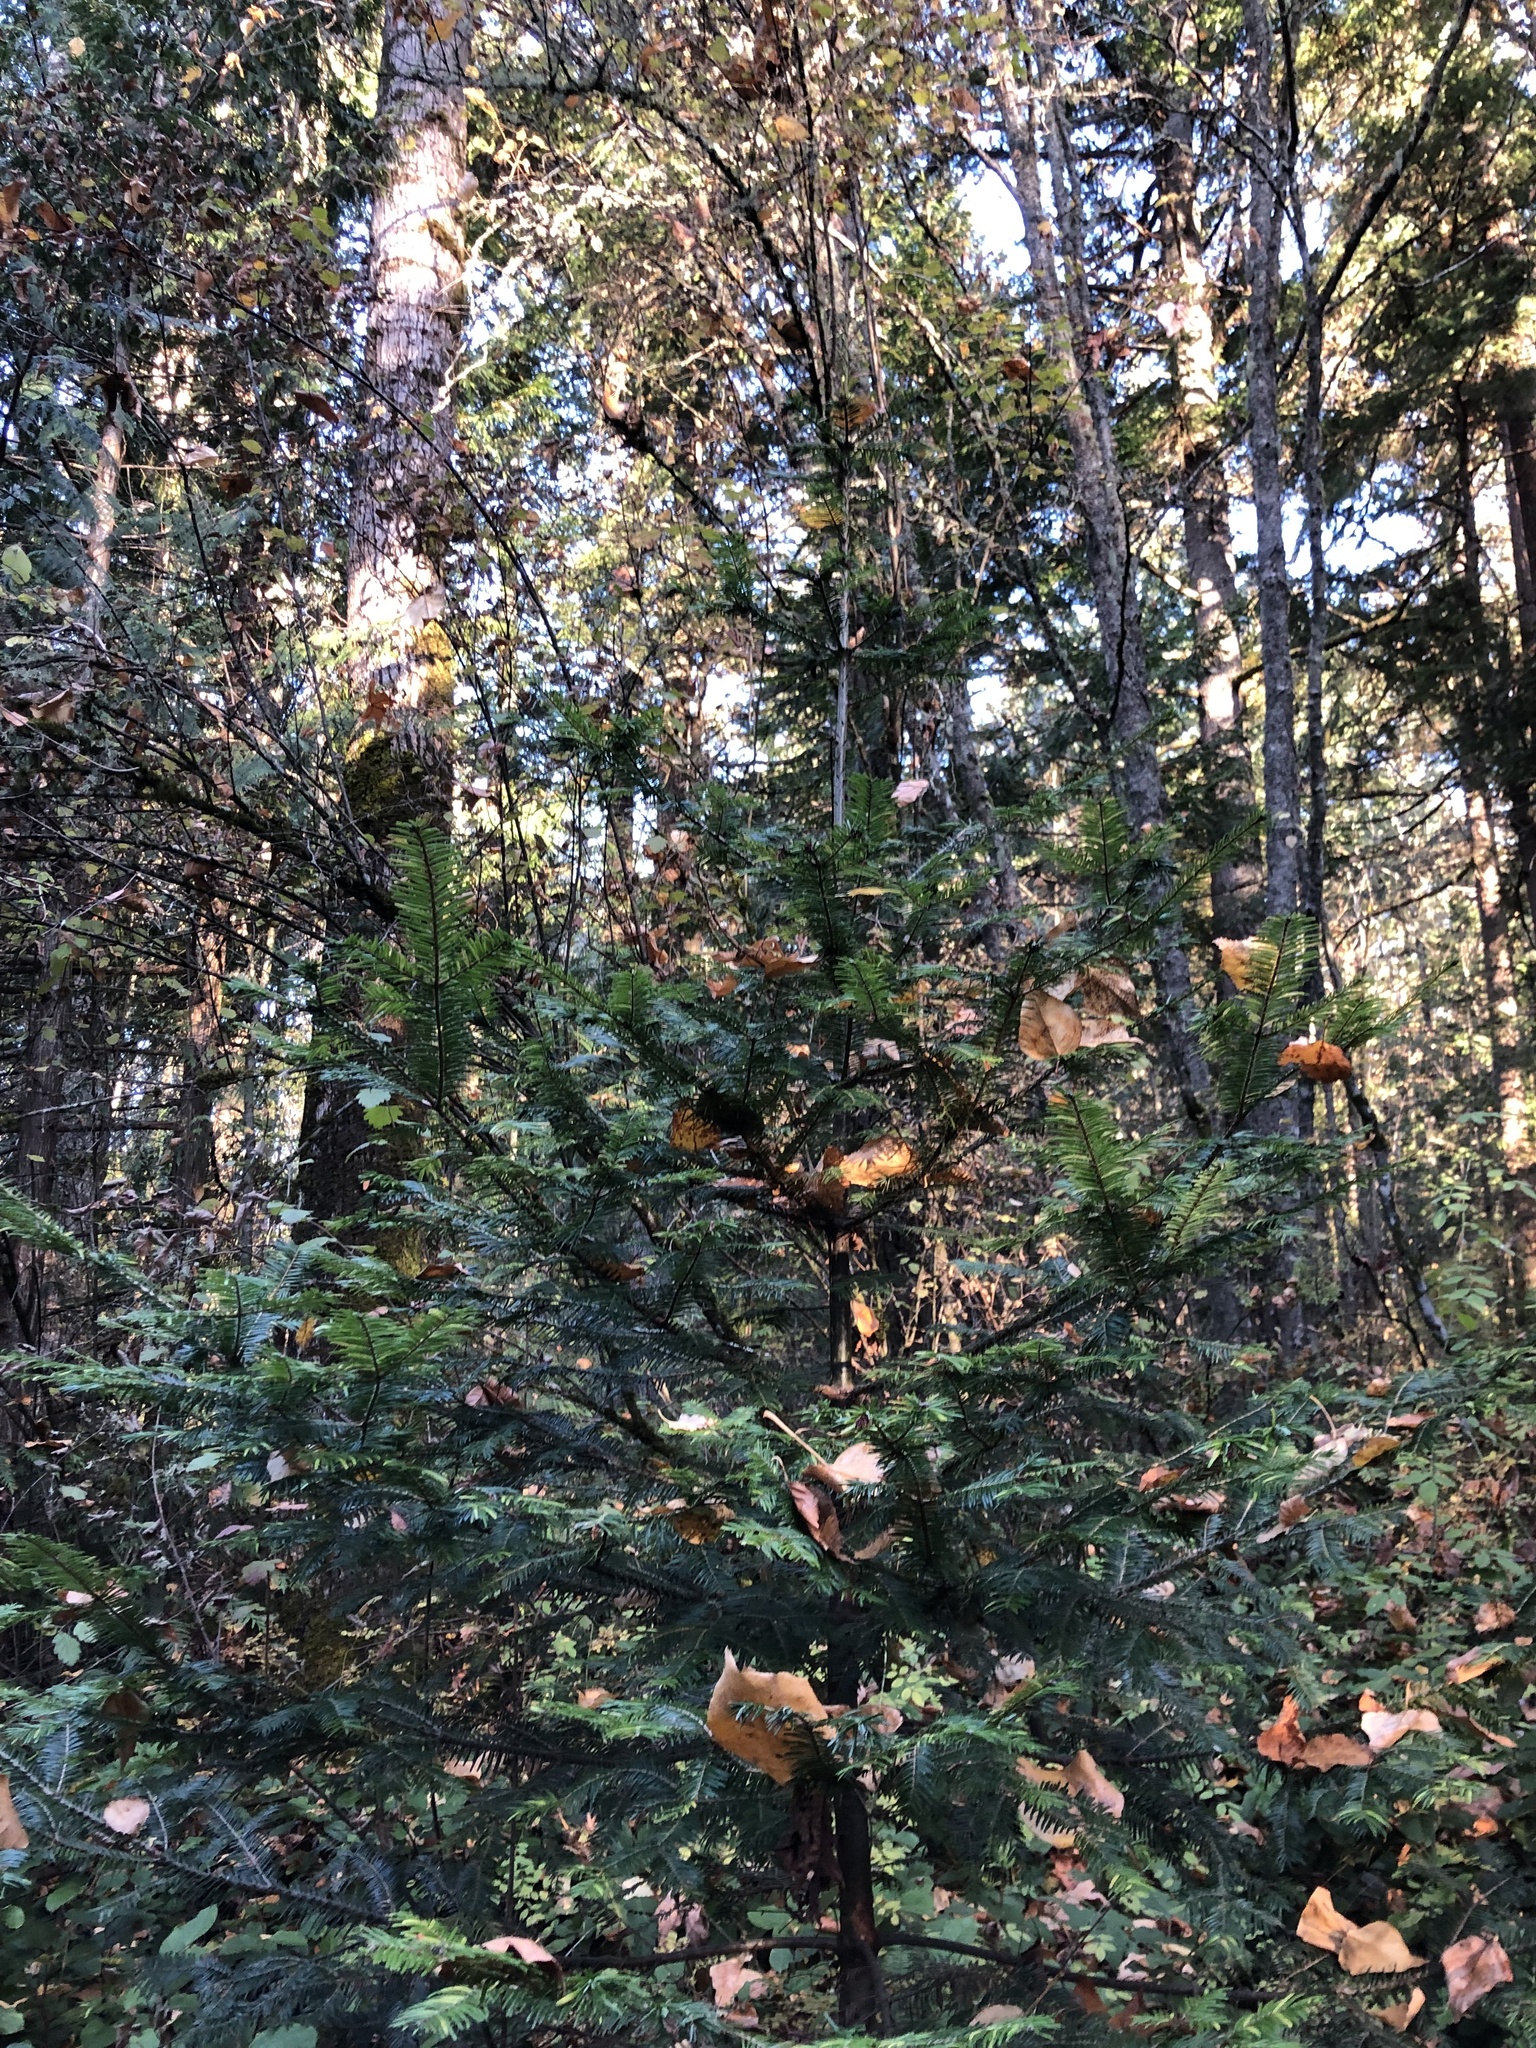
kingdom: Plantae
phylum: Tracheophyta
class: Pinopsida
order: Pinales
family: Pinaceae
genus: Abies
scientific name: Abies grandis
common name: Giant fir
